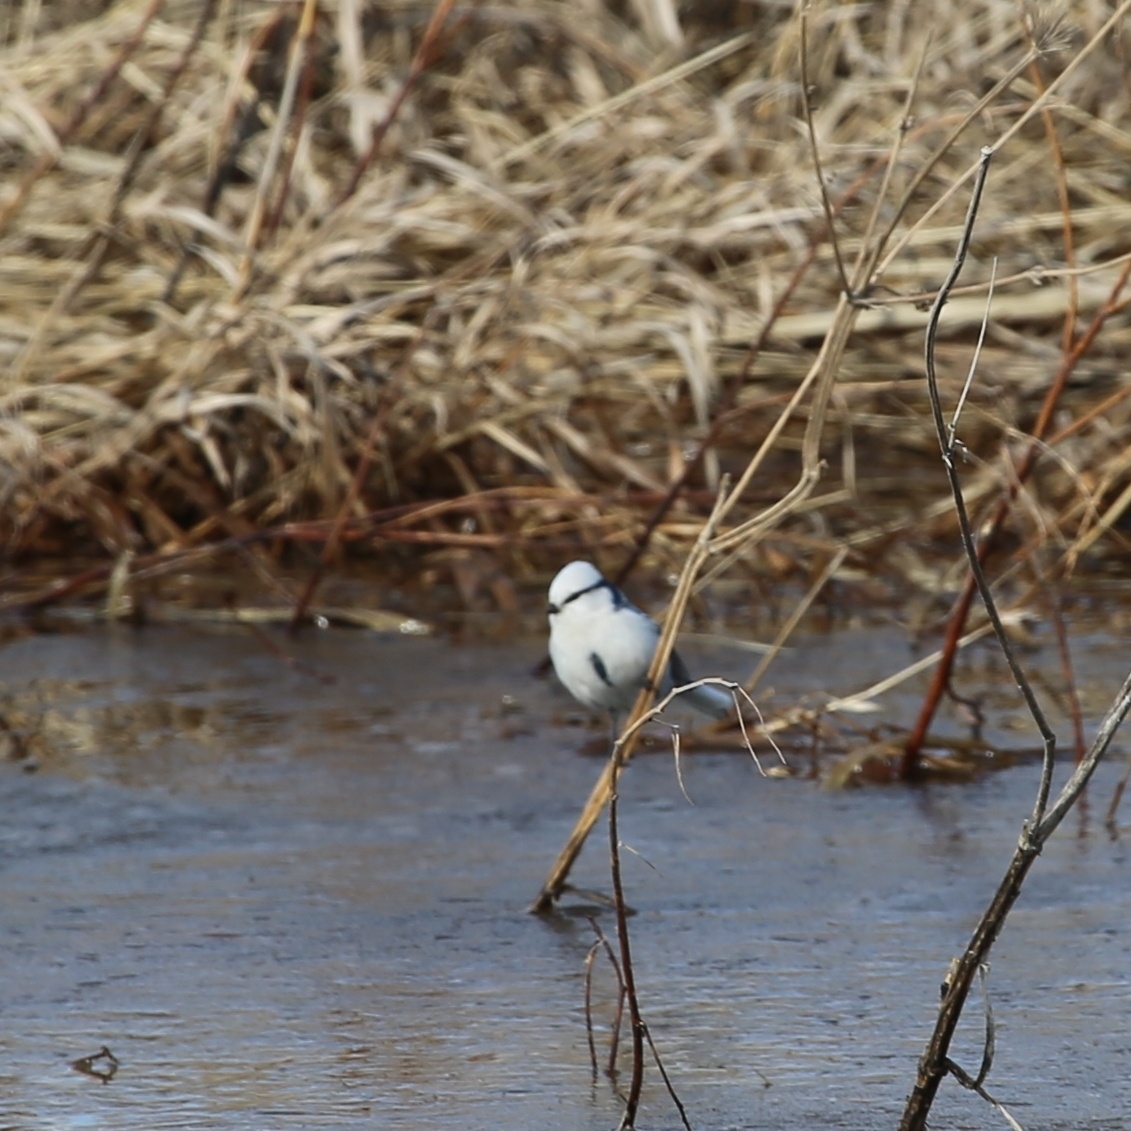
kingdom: Animalia
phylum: Chordata
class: Aves
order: Passeriformes
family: Paridae
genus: Cyanistes
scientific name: Cyanistes cyanus
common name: Azure tit
